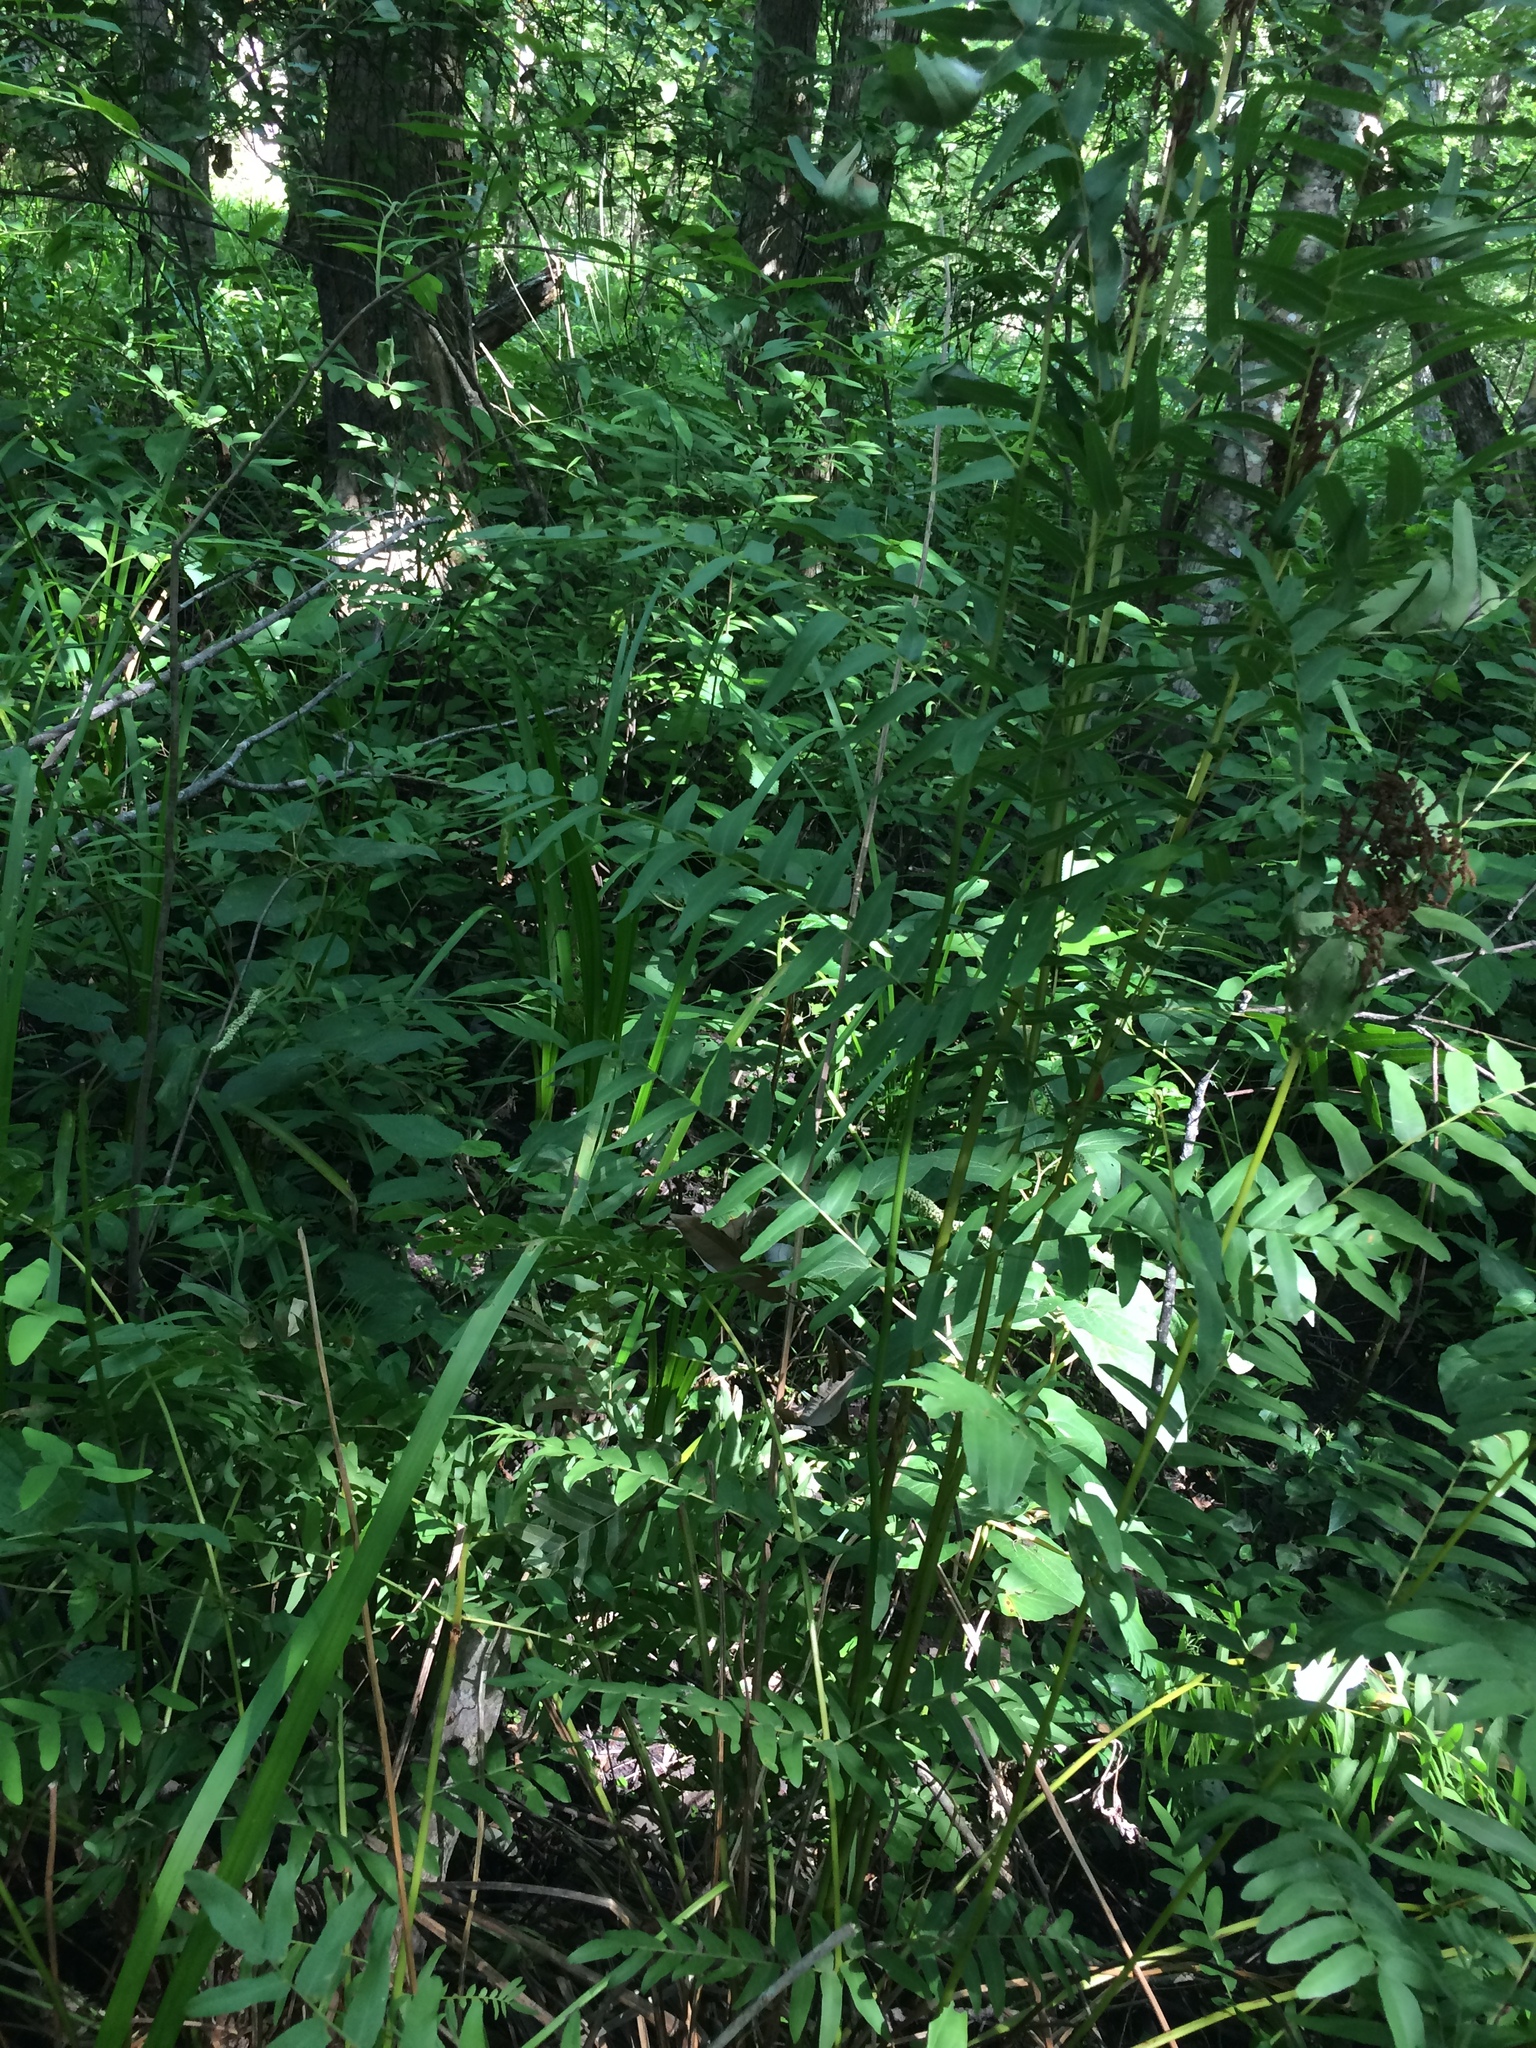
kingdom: Plantae
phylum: Tracheophyta
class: Polypodiopsida
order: Osmundales
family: Osmundaceae
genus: Osmunda
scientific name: Osmunda spectabilis
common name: American royal fern
